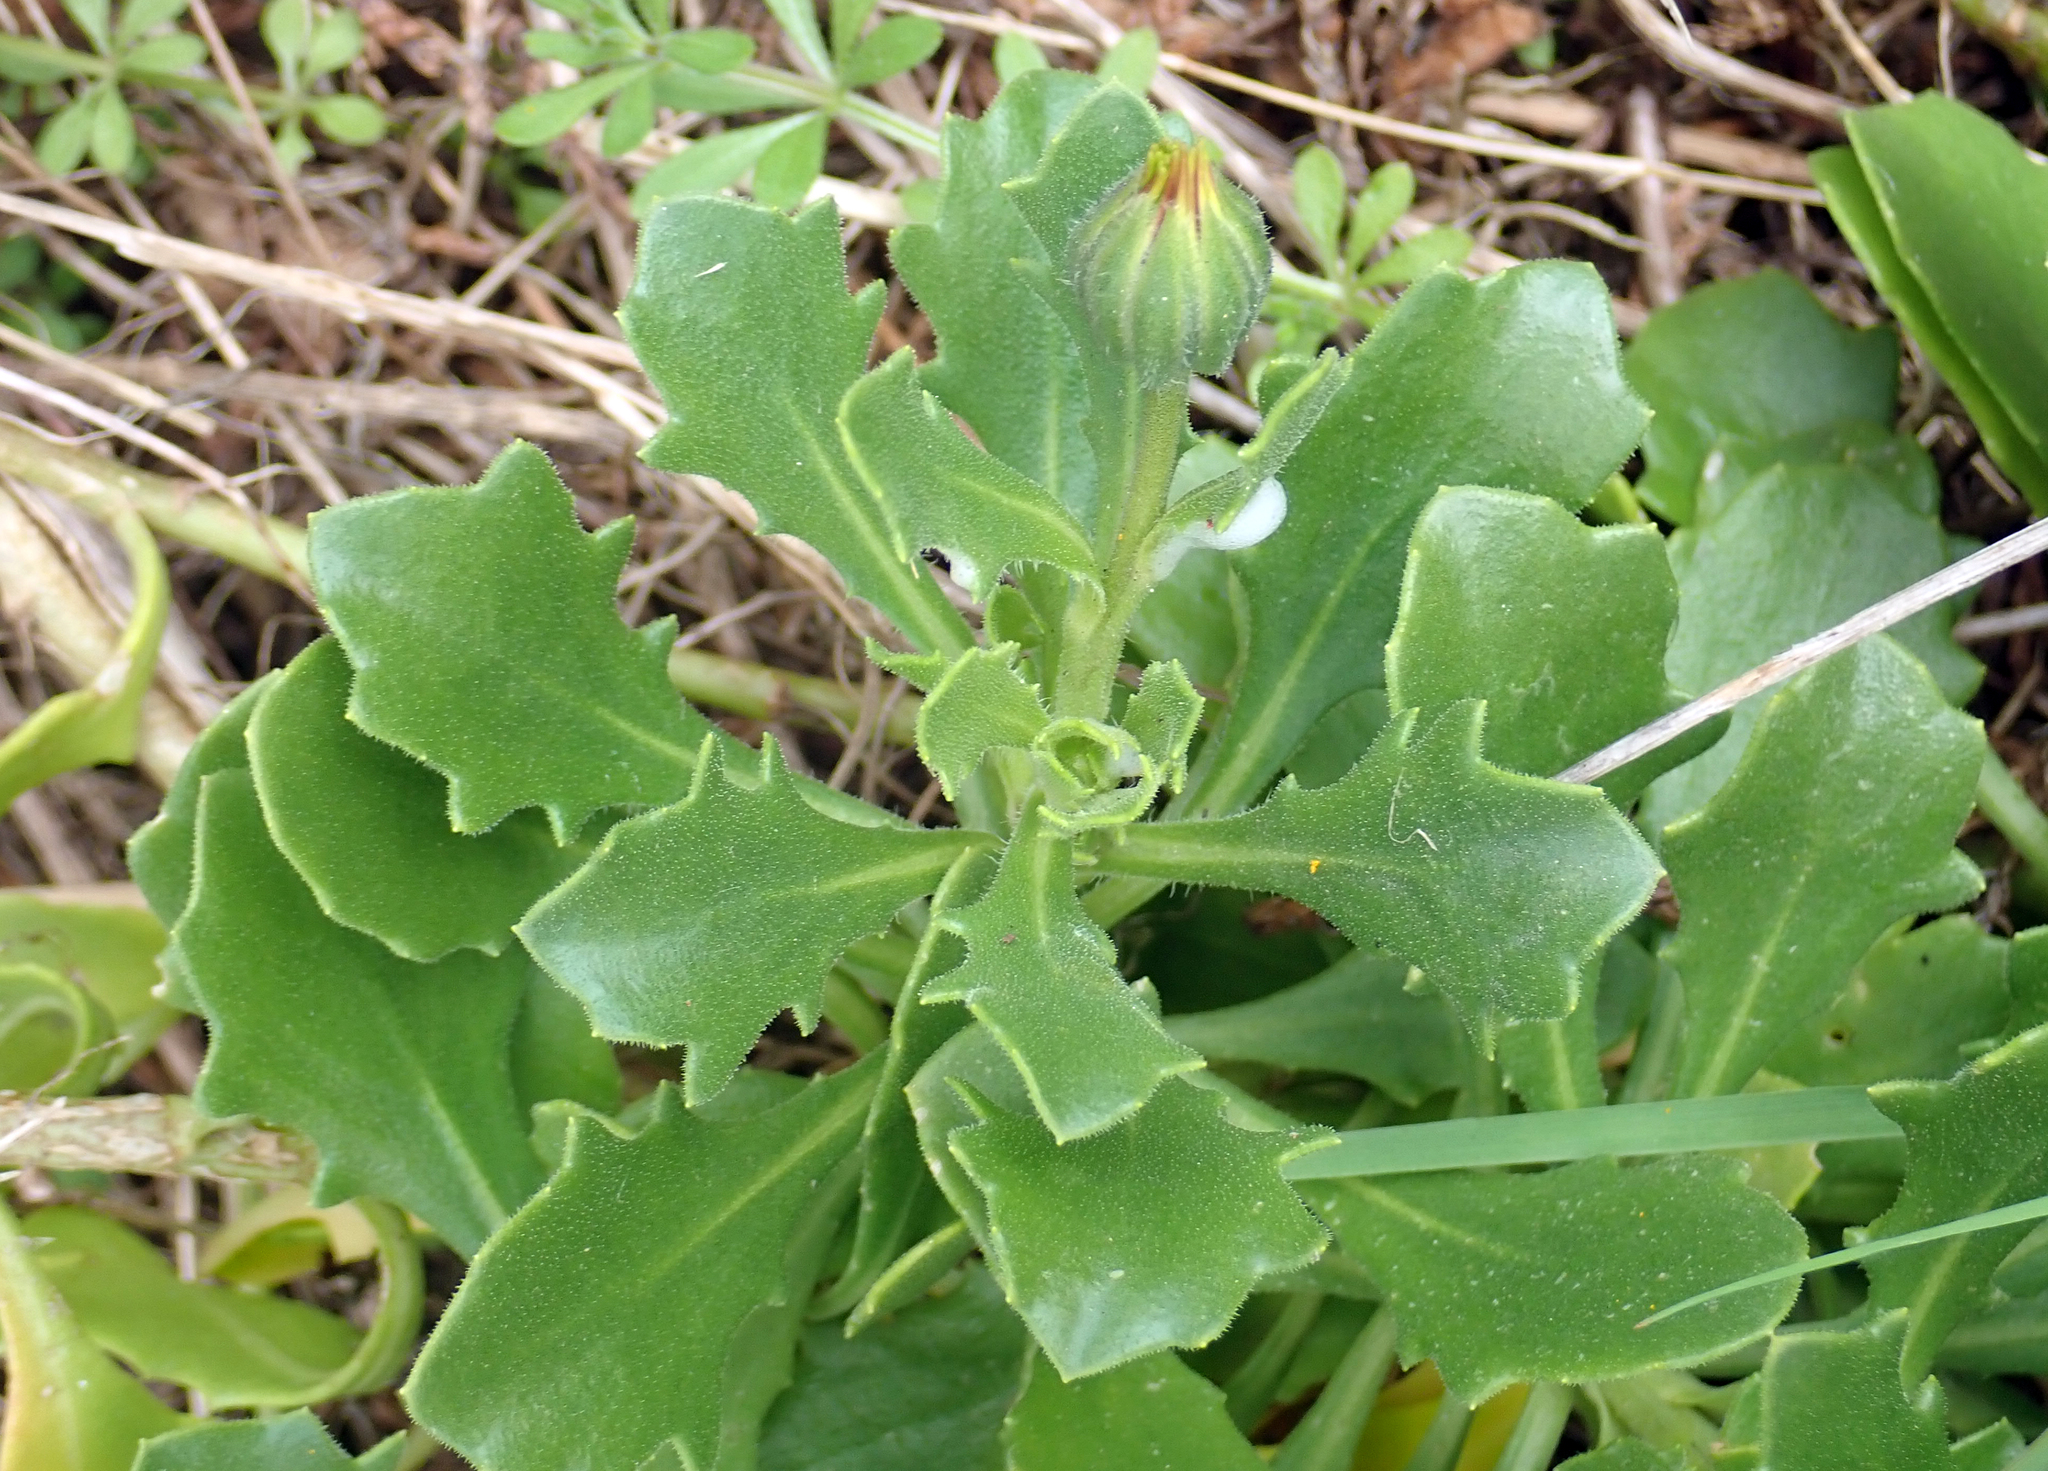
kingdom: Plantae
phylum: Tracheophyta
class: Magnoliopsida
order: Asterales
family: Asteraceae
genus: Dimorphotheca
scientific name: Dimorphotheca fruticosa
